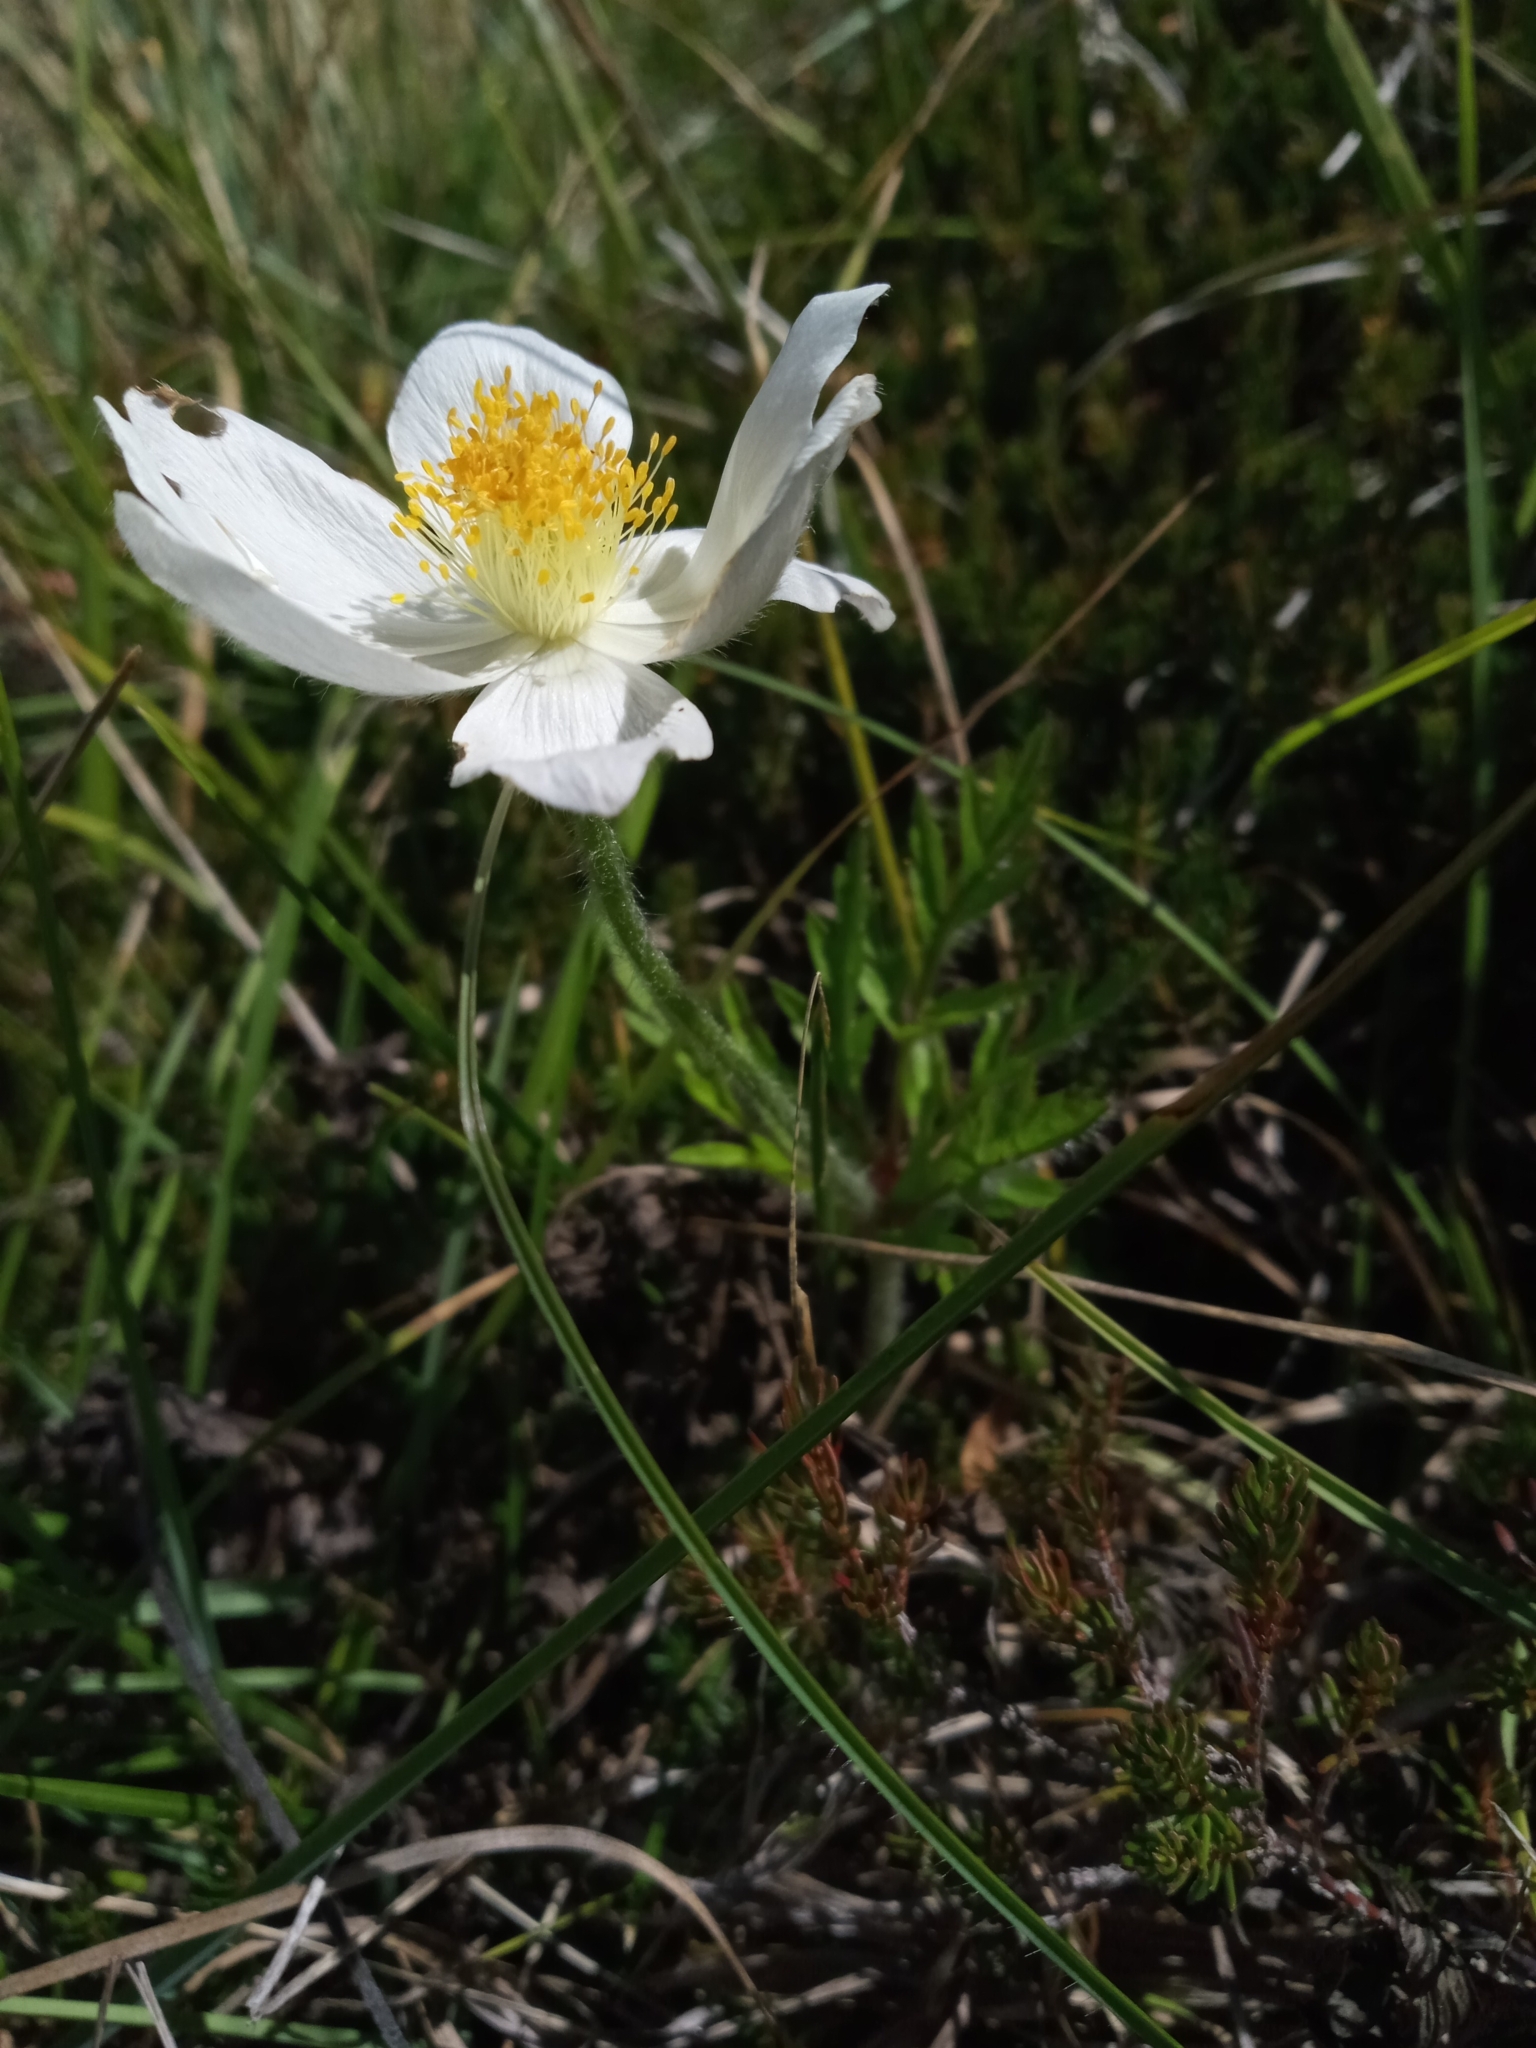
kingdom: Plantae
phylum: Tracheophyta
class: Magnoliopsida
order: Ranunculales
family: Ranunculaceae
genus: Pulsatilla
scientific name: Pulsatilla alpina
